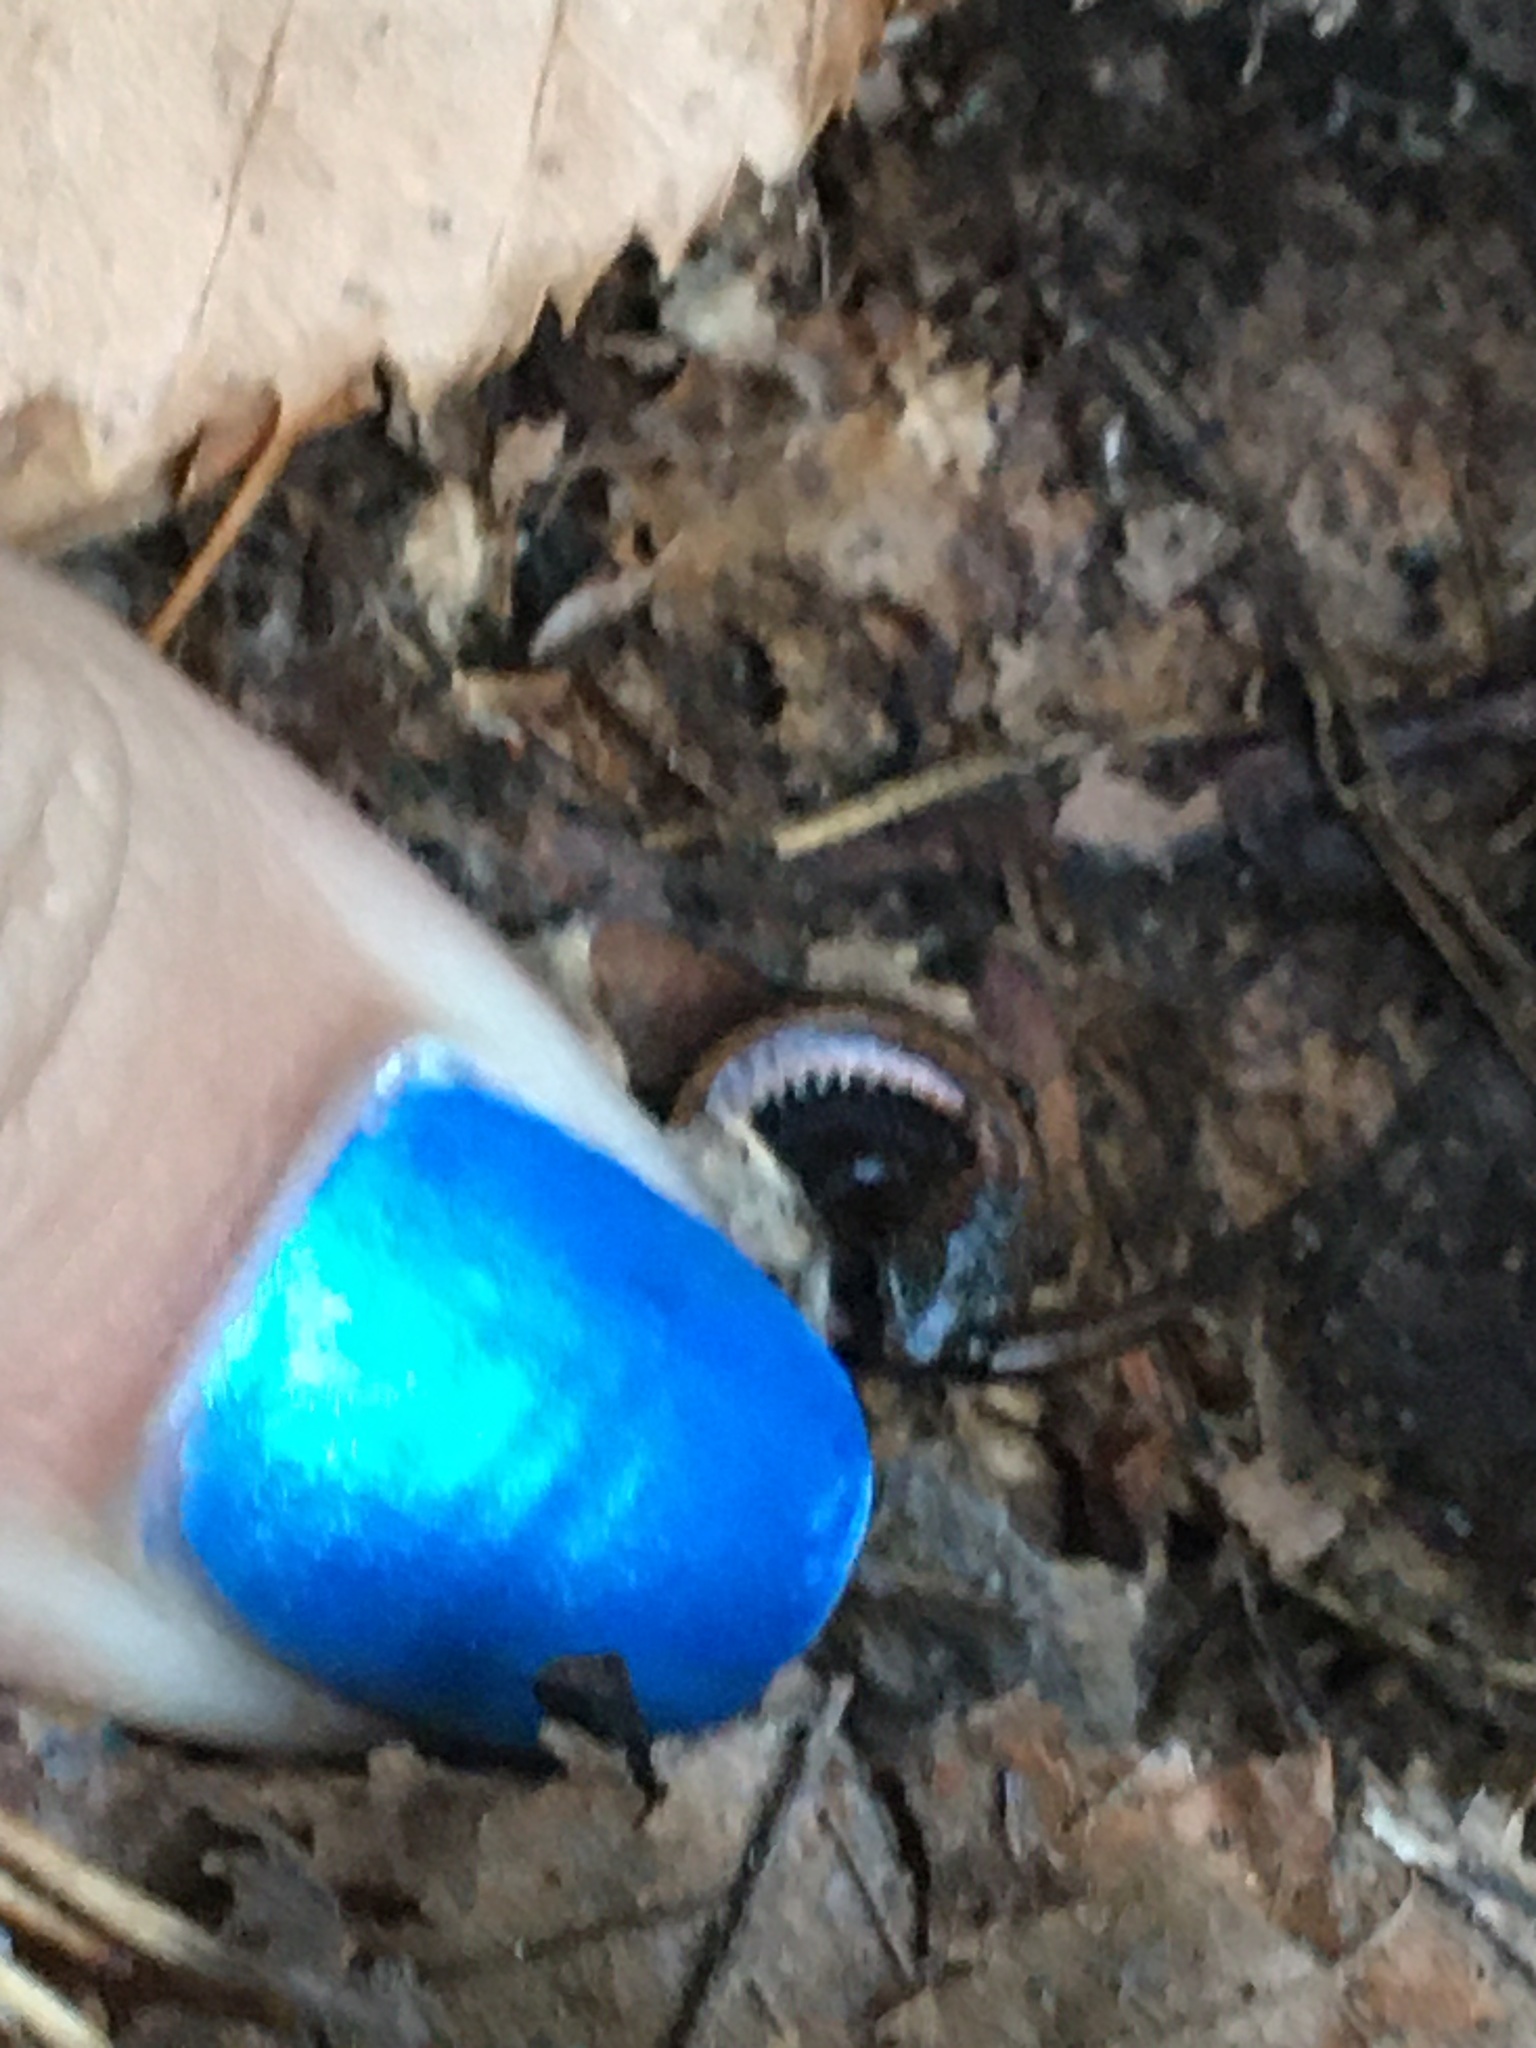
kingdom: Animalia
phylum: Chordata
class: Amphibia
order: Caudata
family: Plethodontidae
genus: Plethodon
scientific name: Plethodon cinereus
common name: Redback salamander
